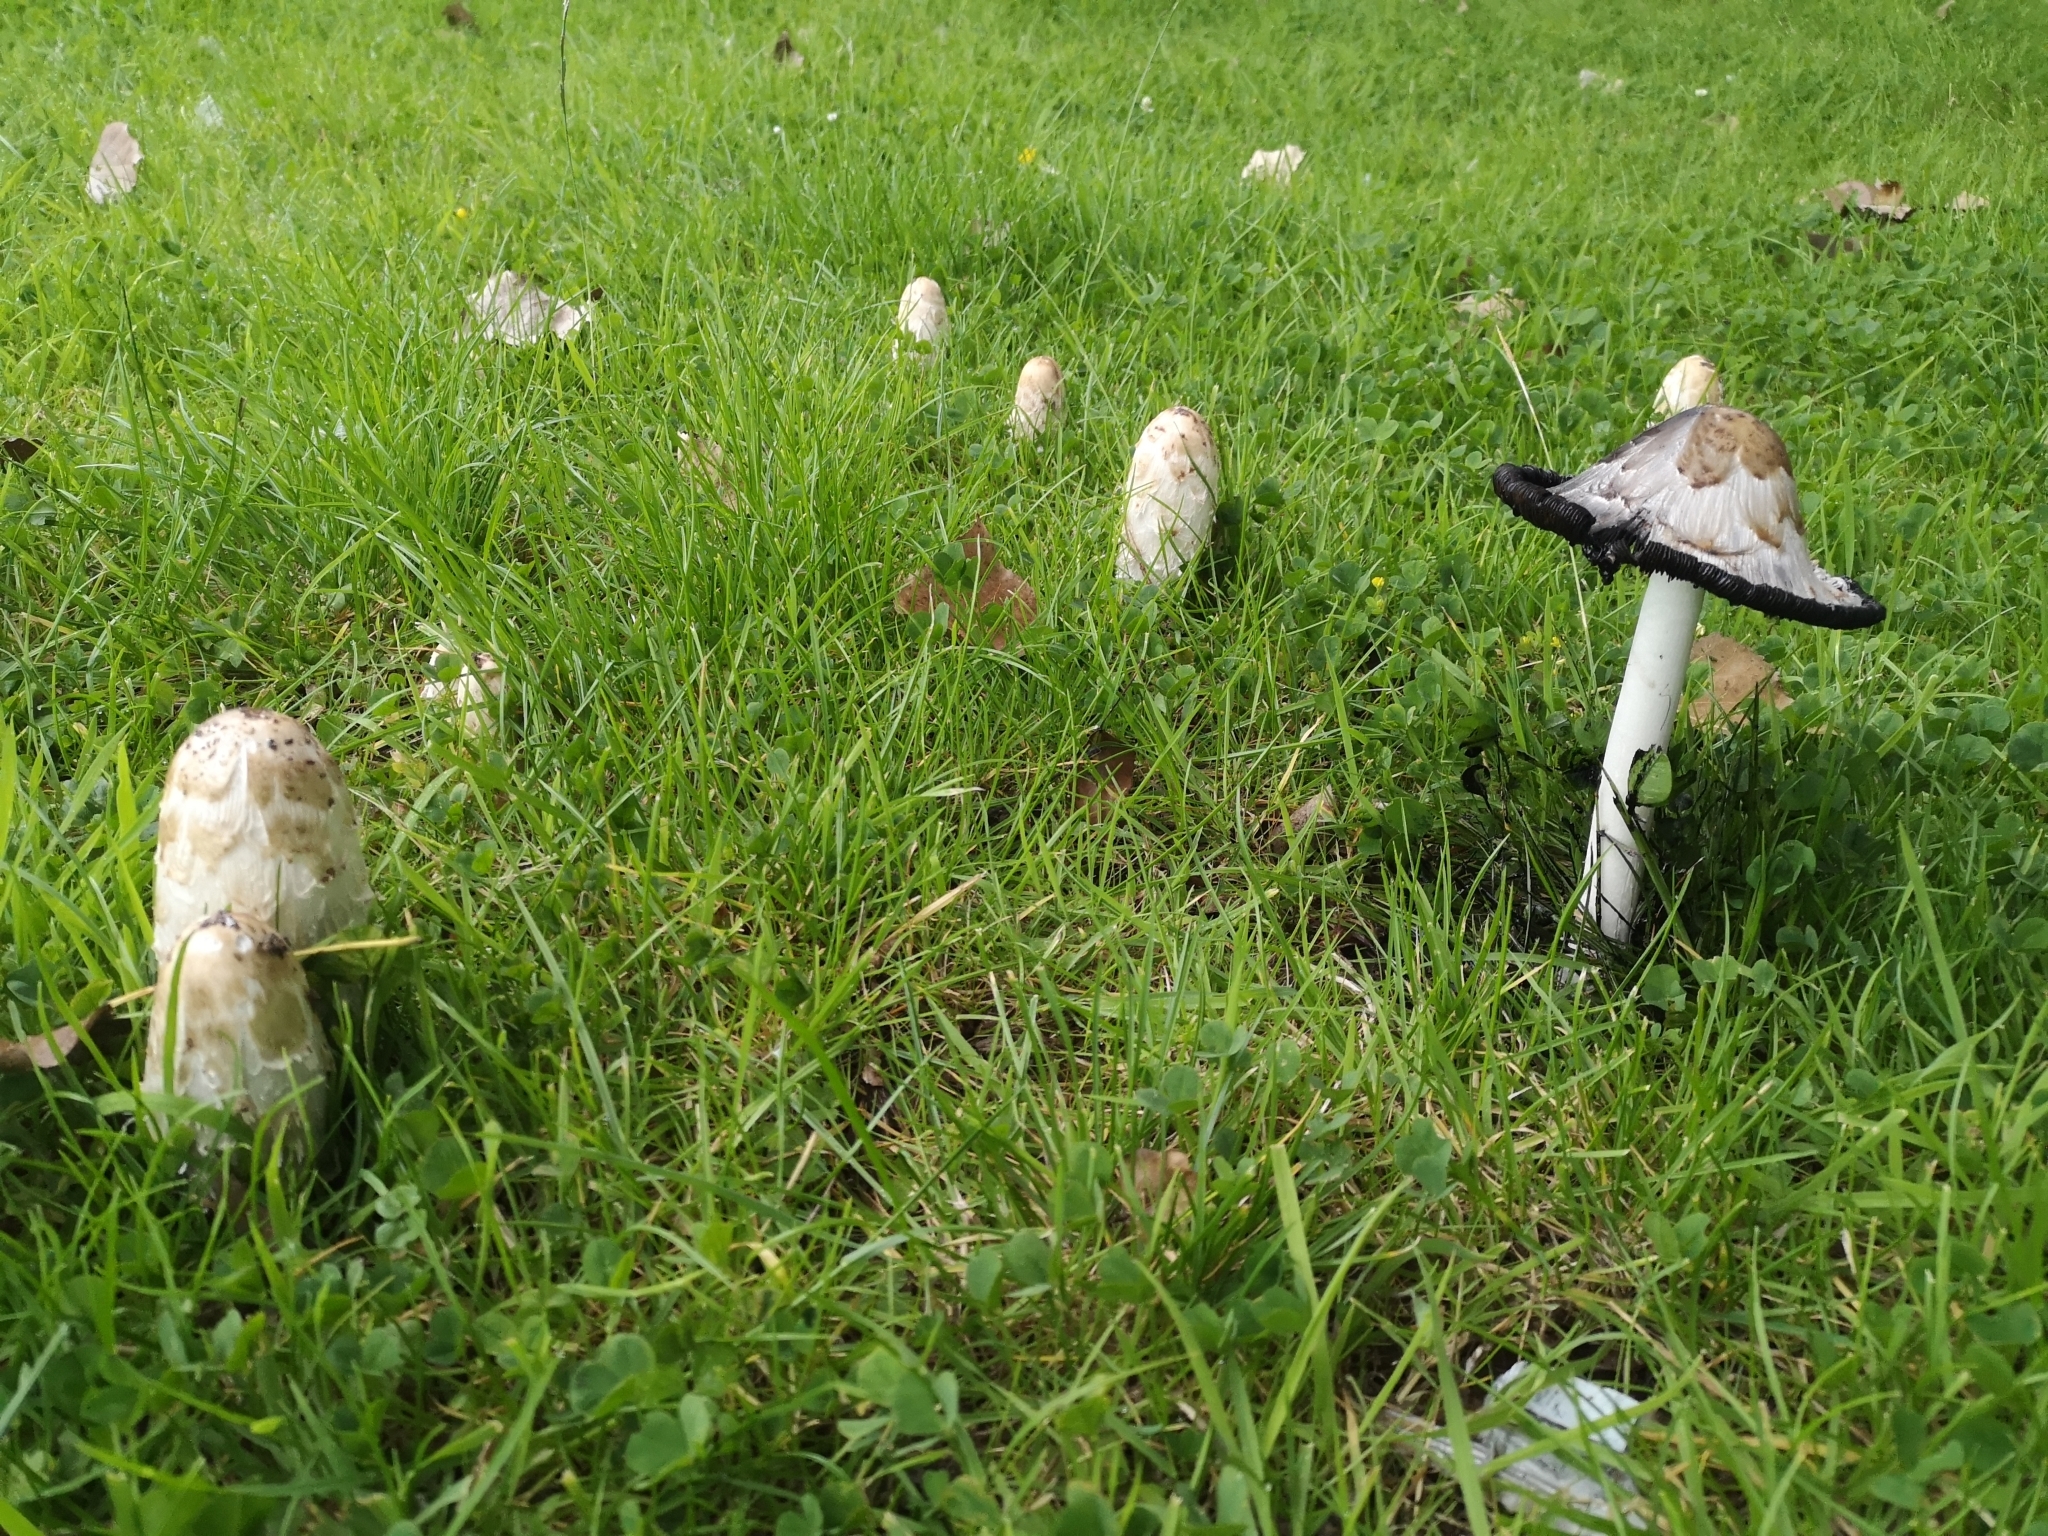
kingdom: Fungi
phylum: Basidiomycota
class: Agaricomycetes
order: Agaricales
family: Agaricaceae
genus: Coprinus
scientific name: Coprinus comatus
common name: Lawyer's wig
